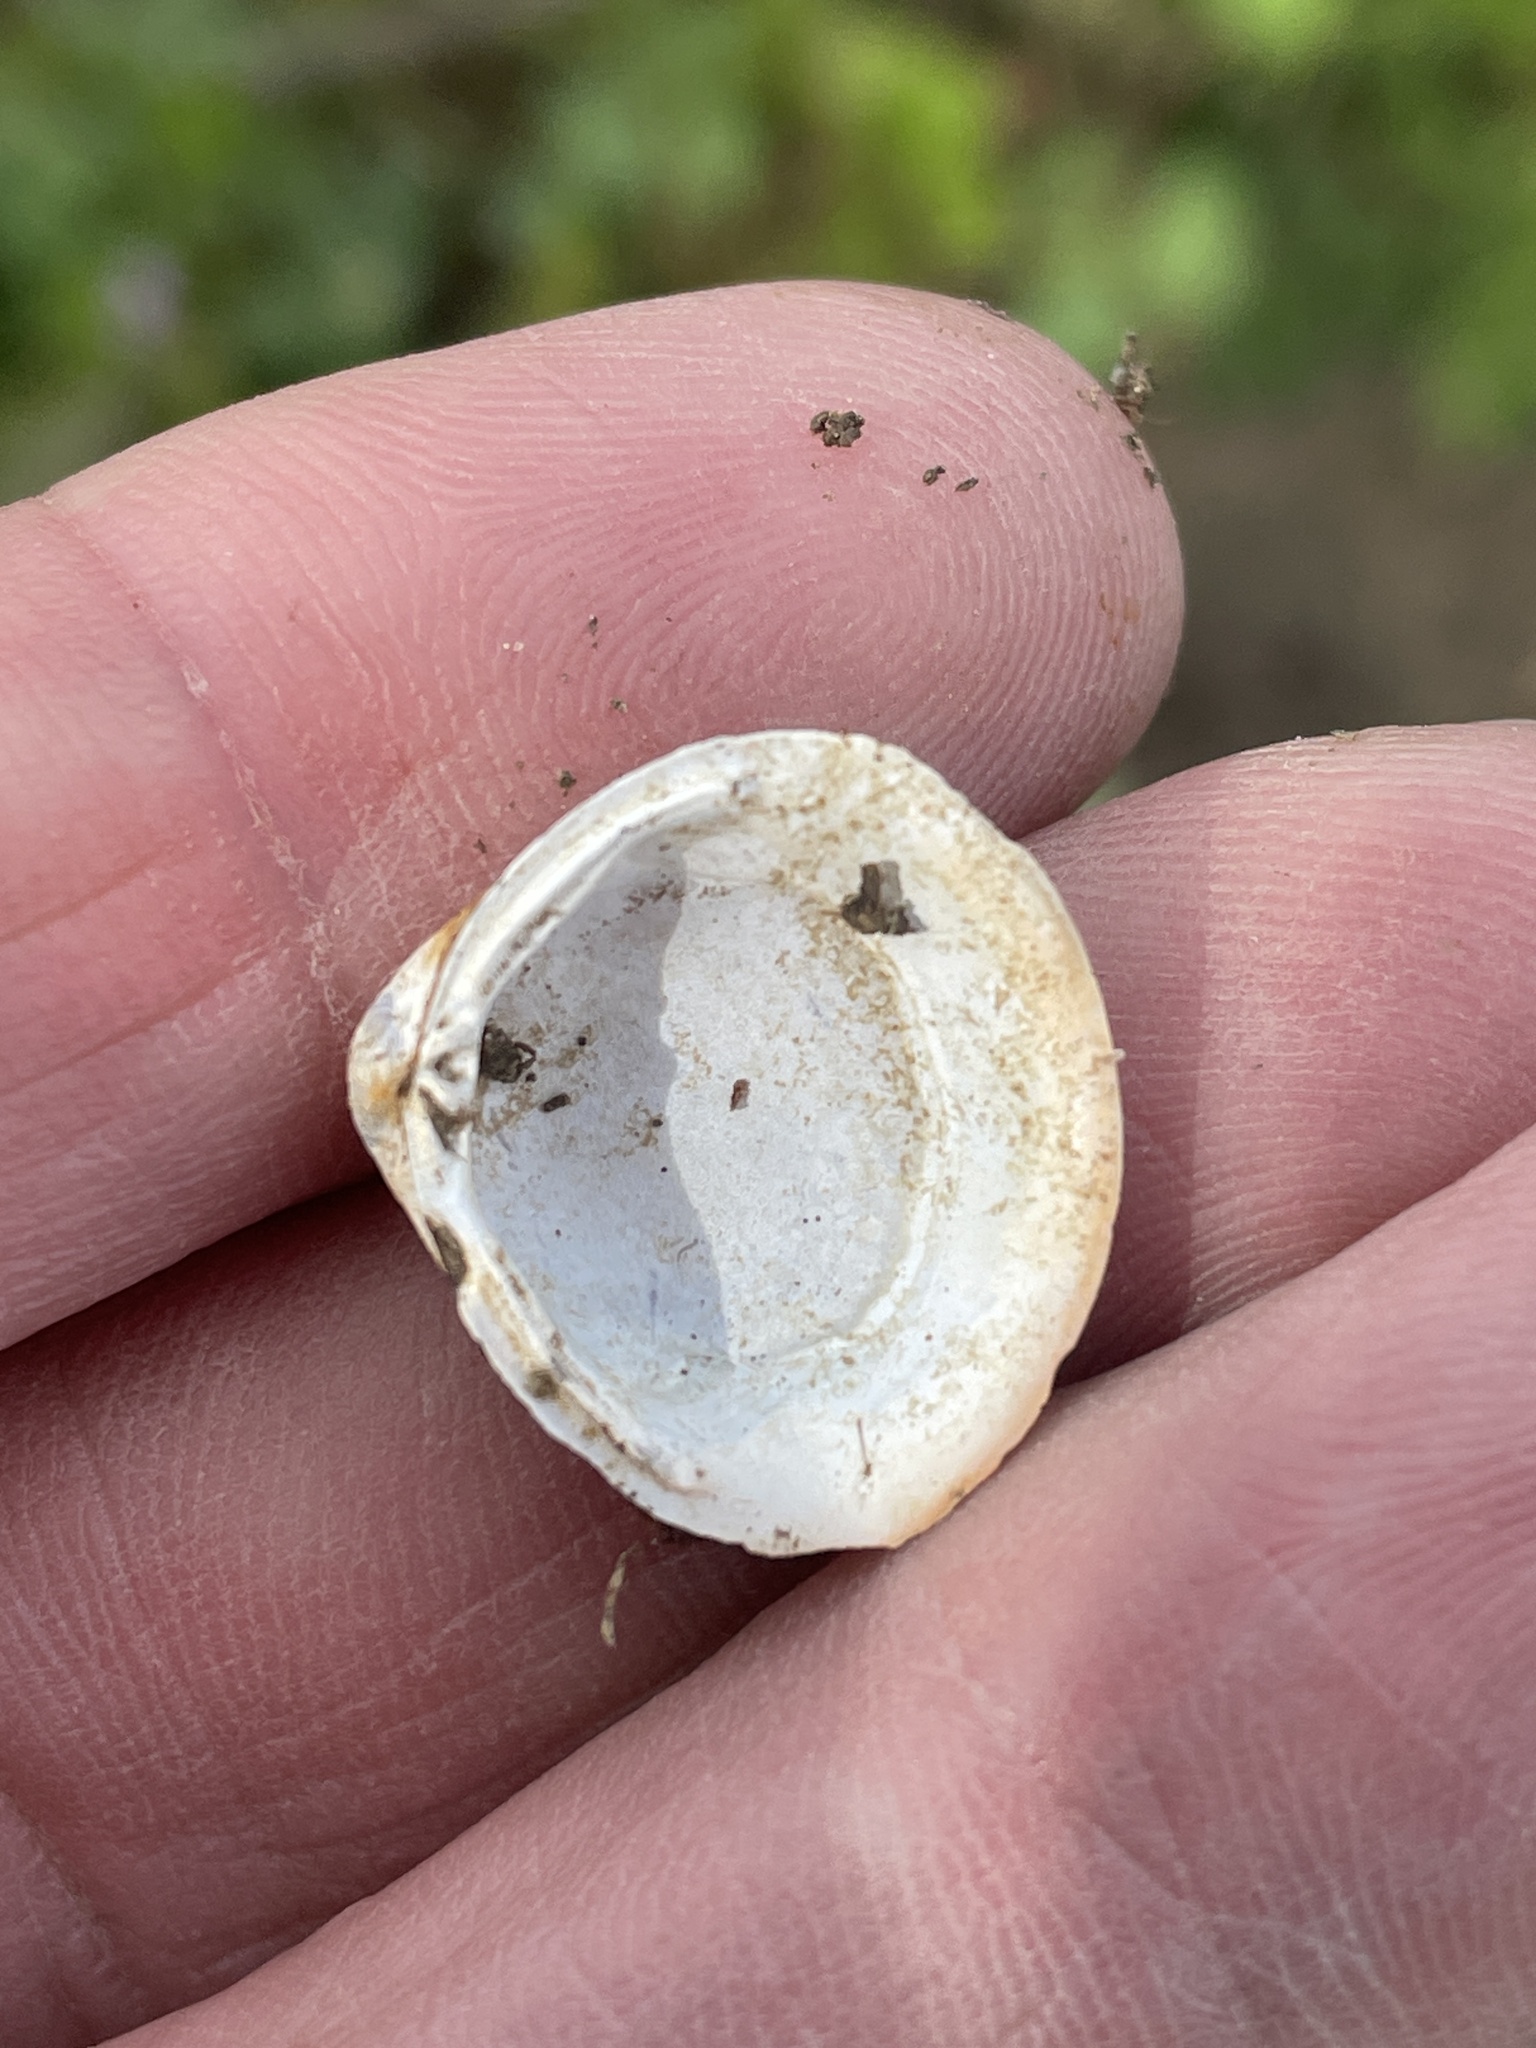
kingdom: Animalia
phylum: Mollusca
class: Bivalvia
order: Venerida
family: Cyrenidae
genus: Corbicula
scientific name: Corbicula fluminea
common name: Asian clam
